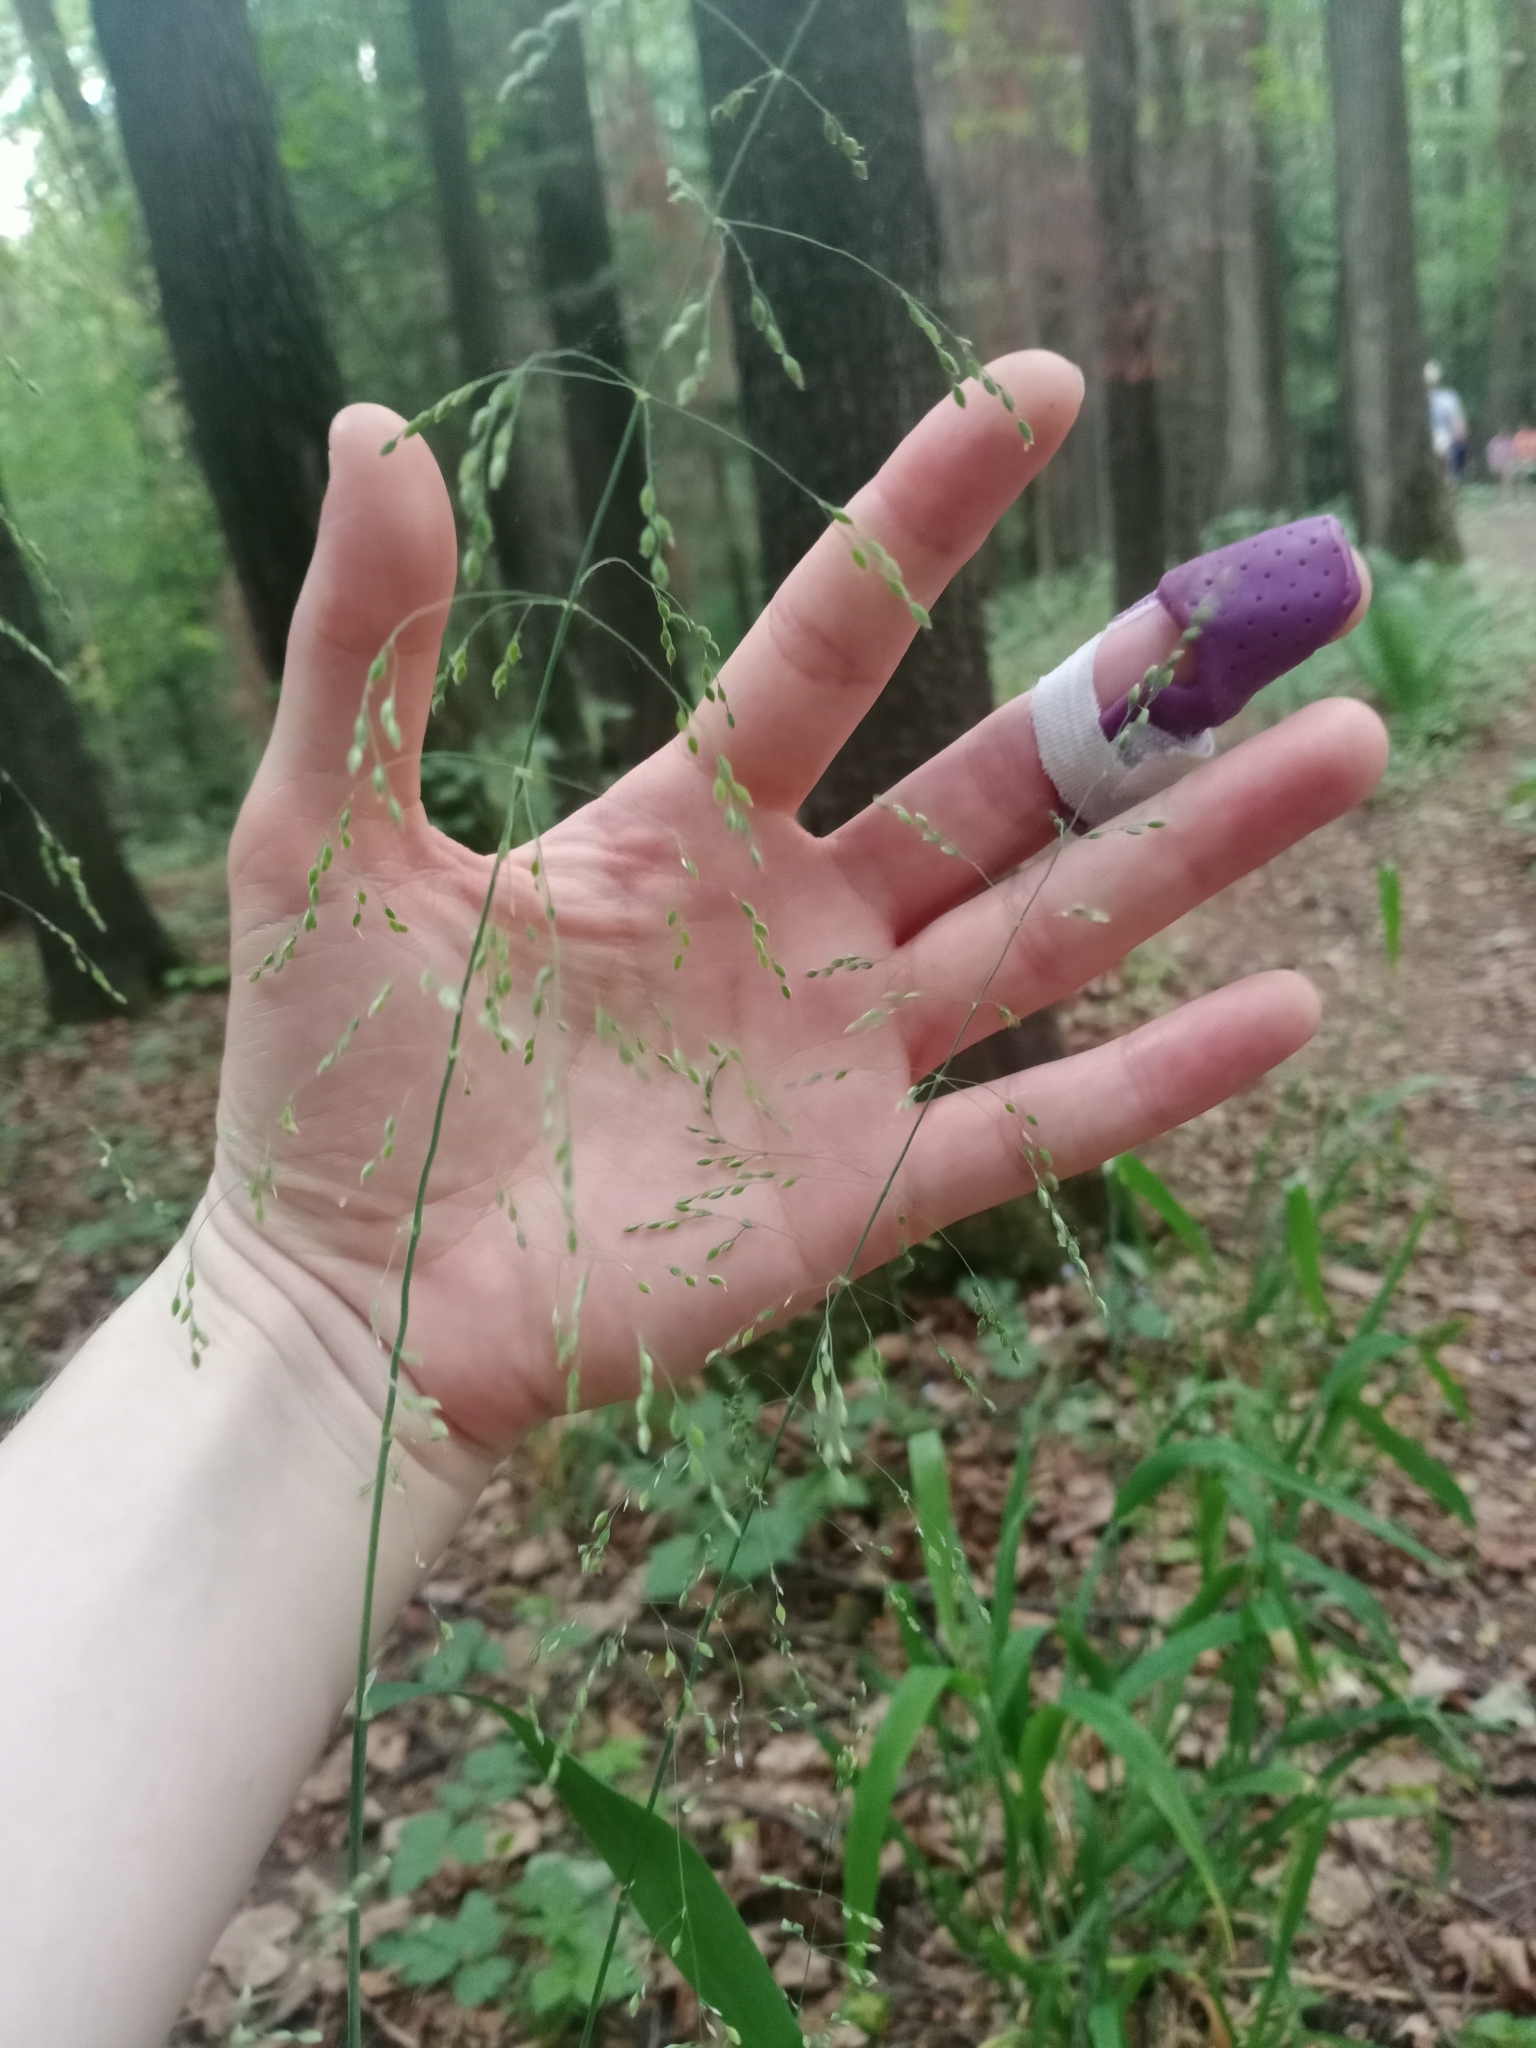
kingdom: Plantae
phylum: Tracheophyta
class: Liliopsida
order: Poales
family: Poaceae
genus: Milium
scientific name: Milium effusum
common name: Wood millet
